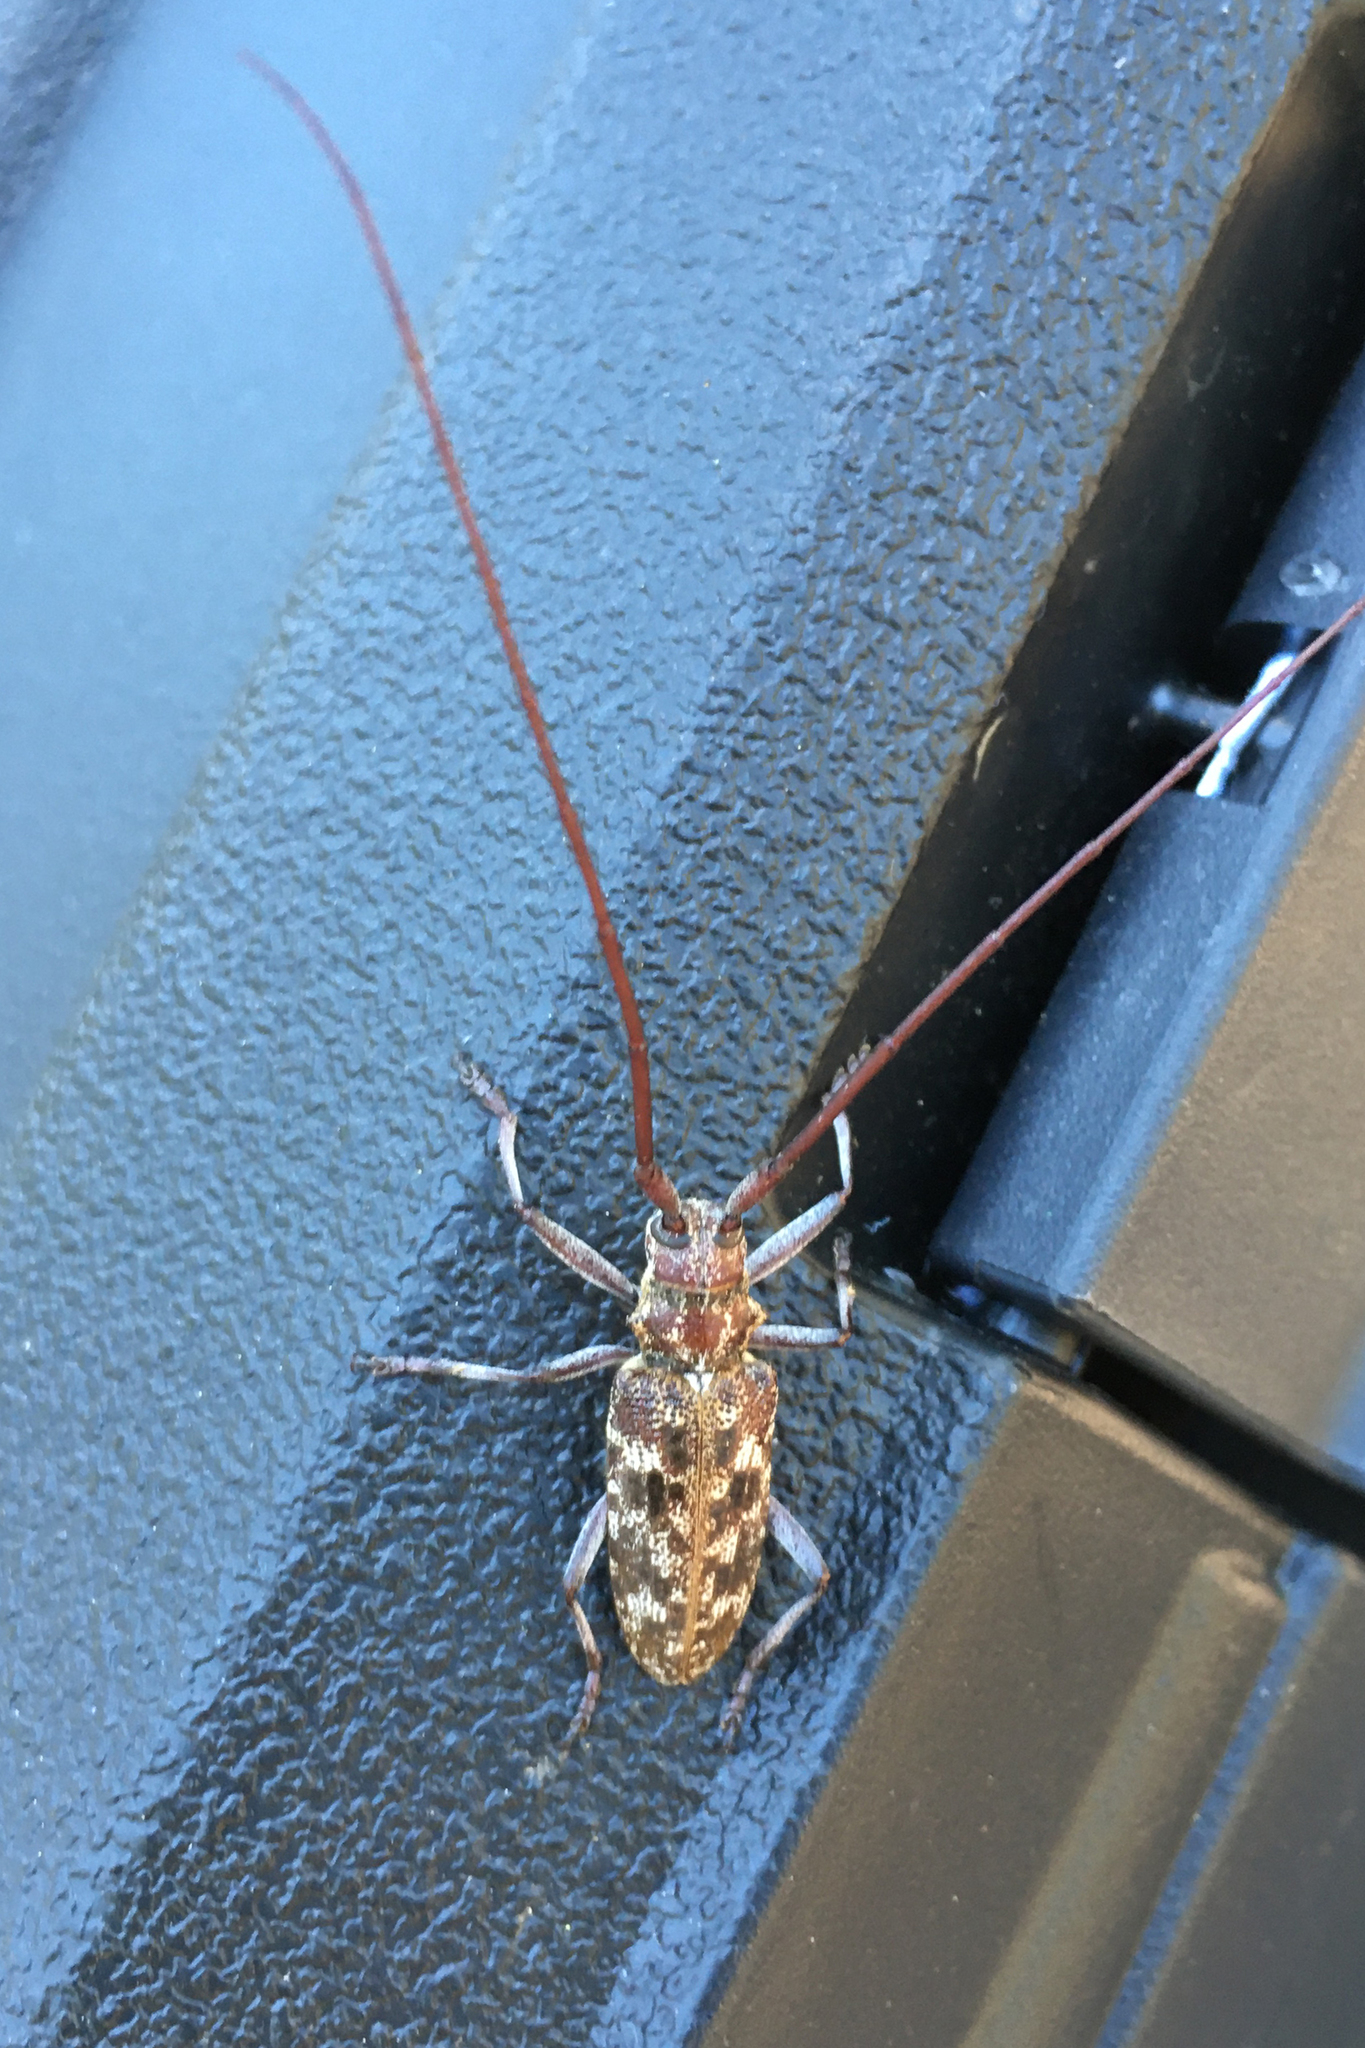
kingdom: Animalia
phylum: Arthropoda
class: Insecta
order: Coleoptera
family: Cerambycidae
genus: Monochamus
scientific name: Monochamus obtusus
